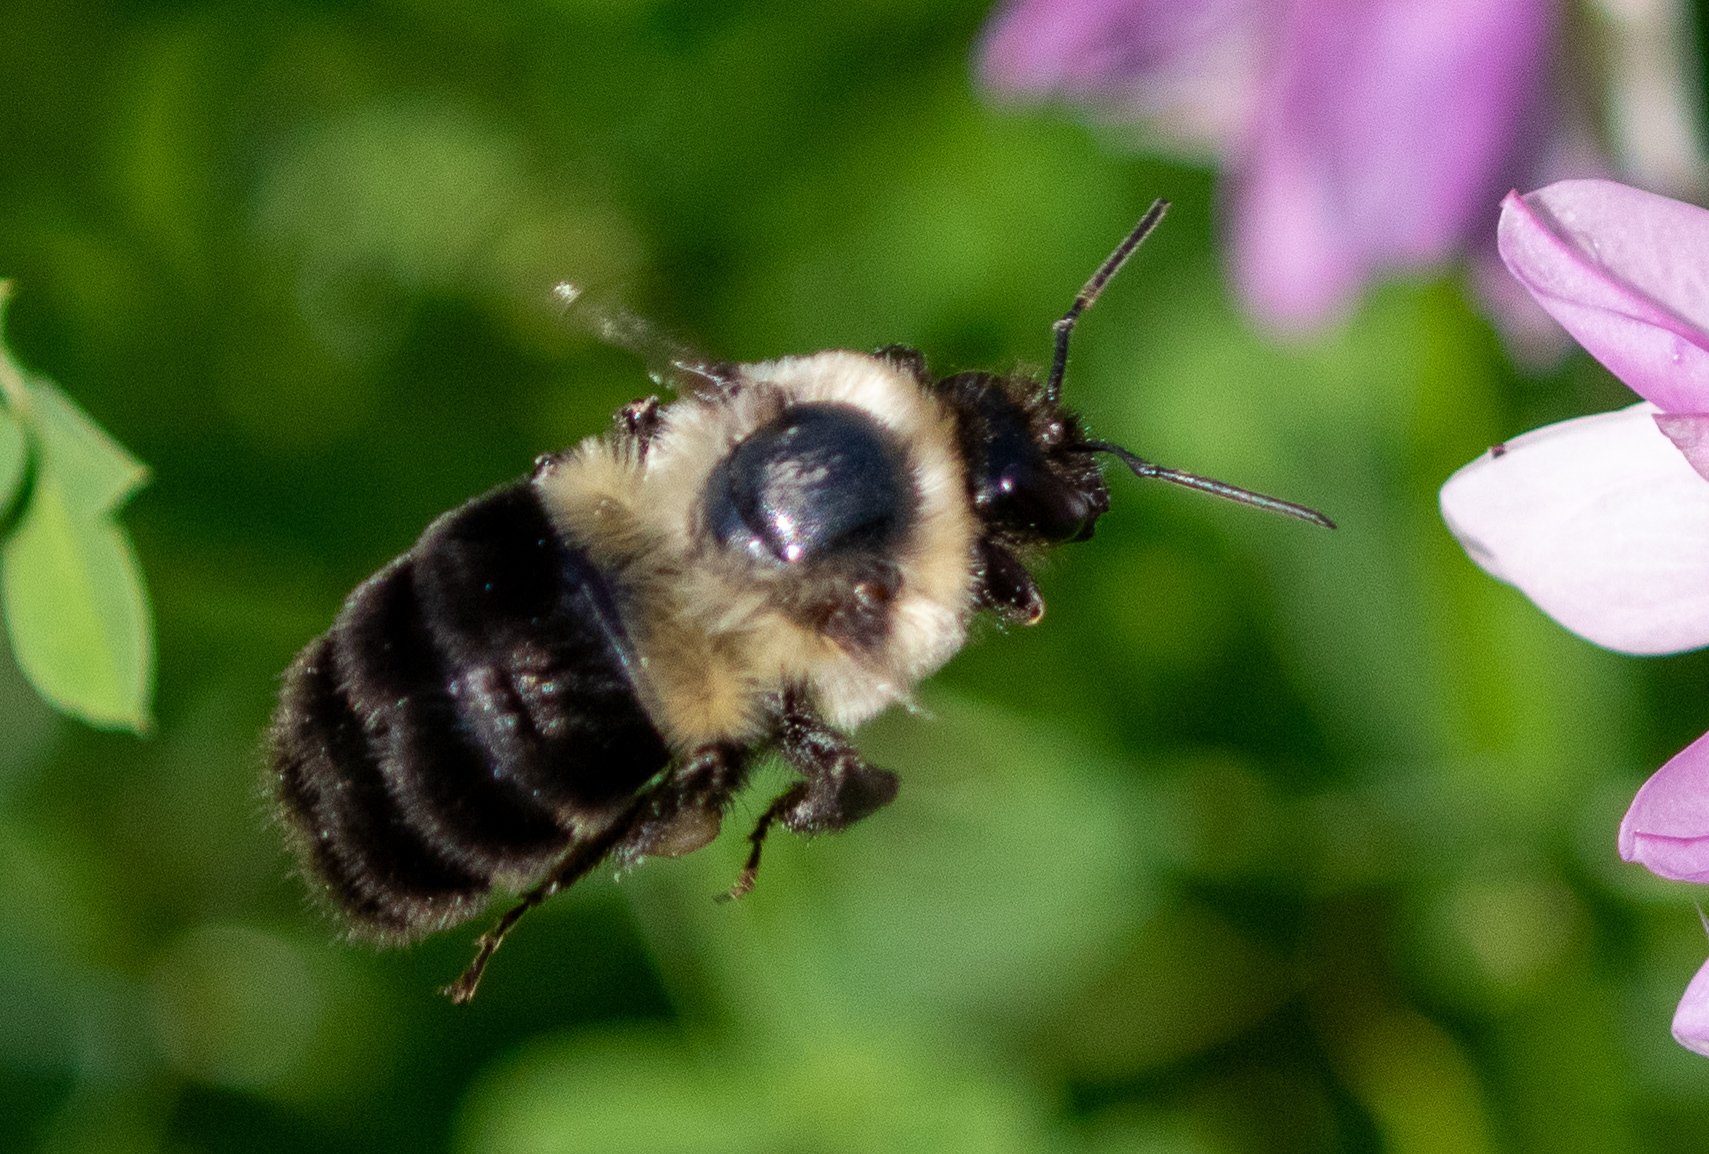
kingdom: Animalia
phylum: Arthropoda
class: Insecta
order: Hymenoptera
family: Apidae
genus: Bombus
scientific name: Bombus impatiens
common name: Common eastern bumble bee
